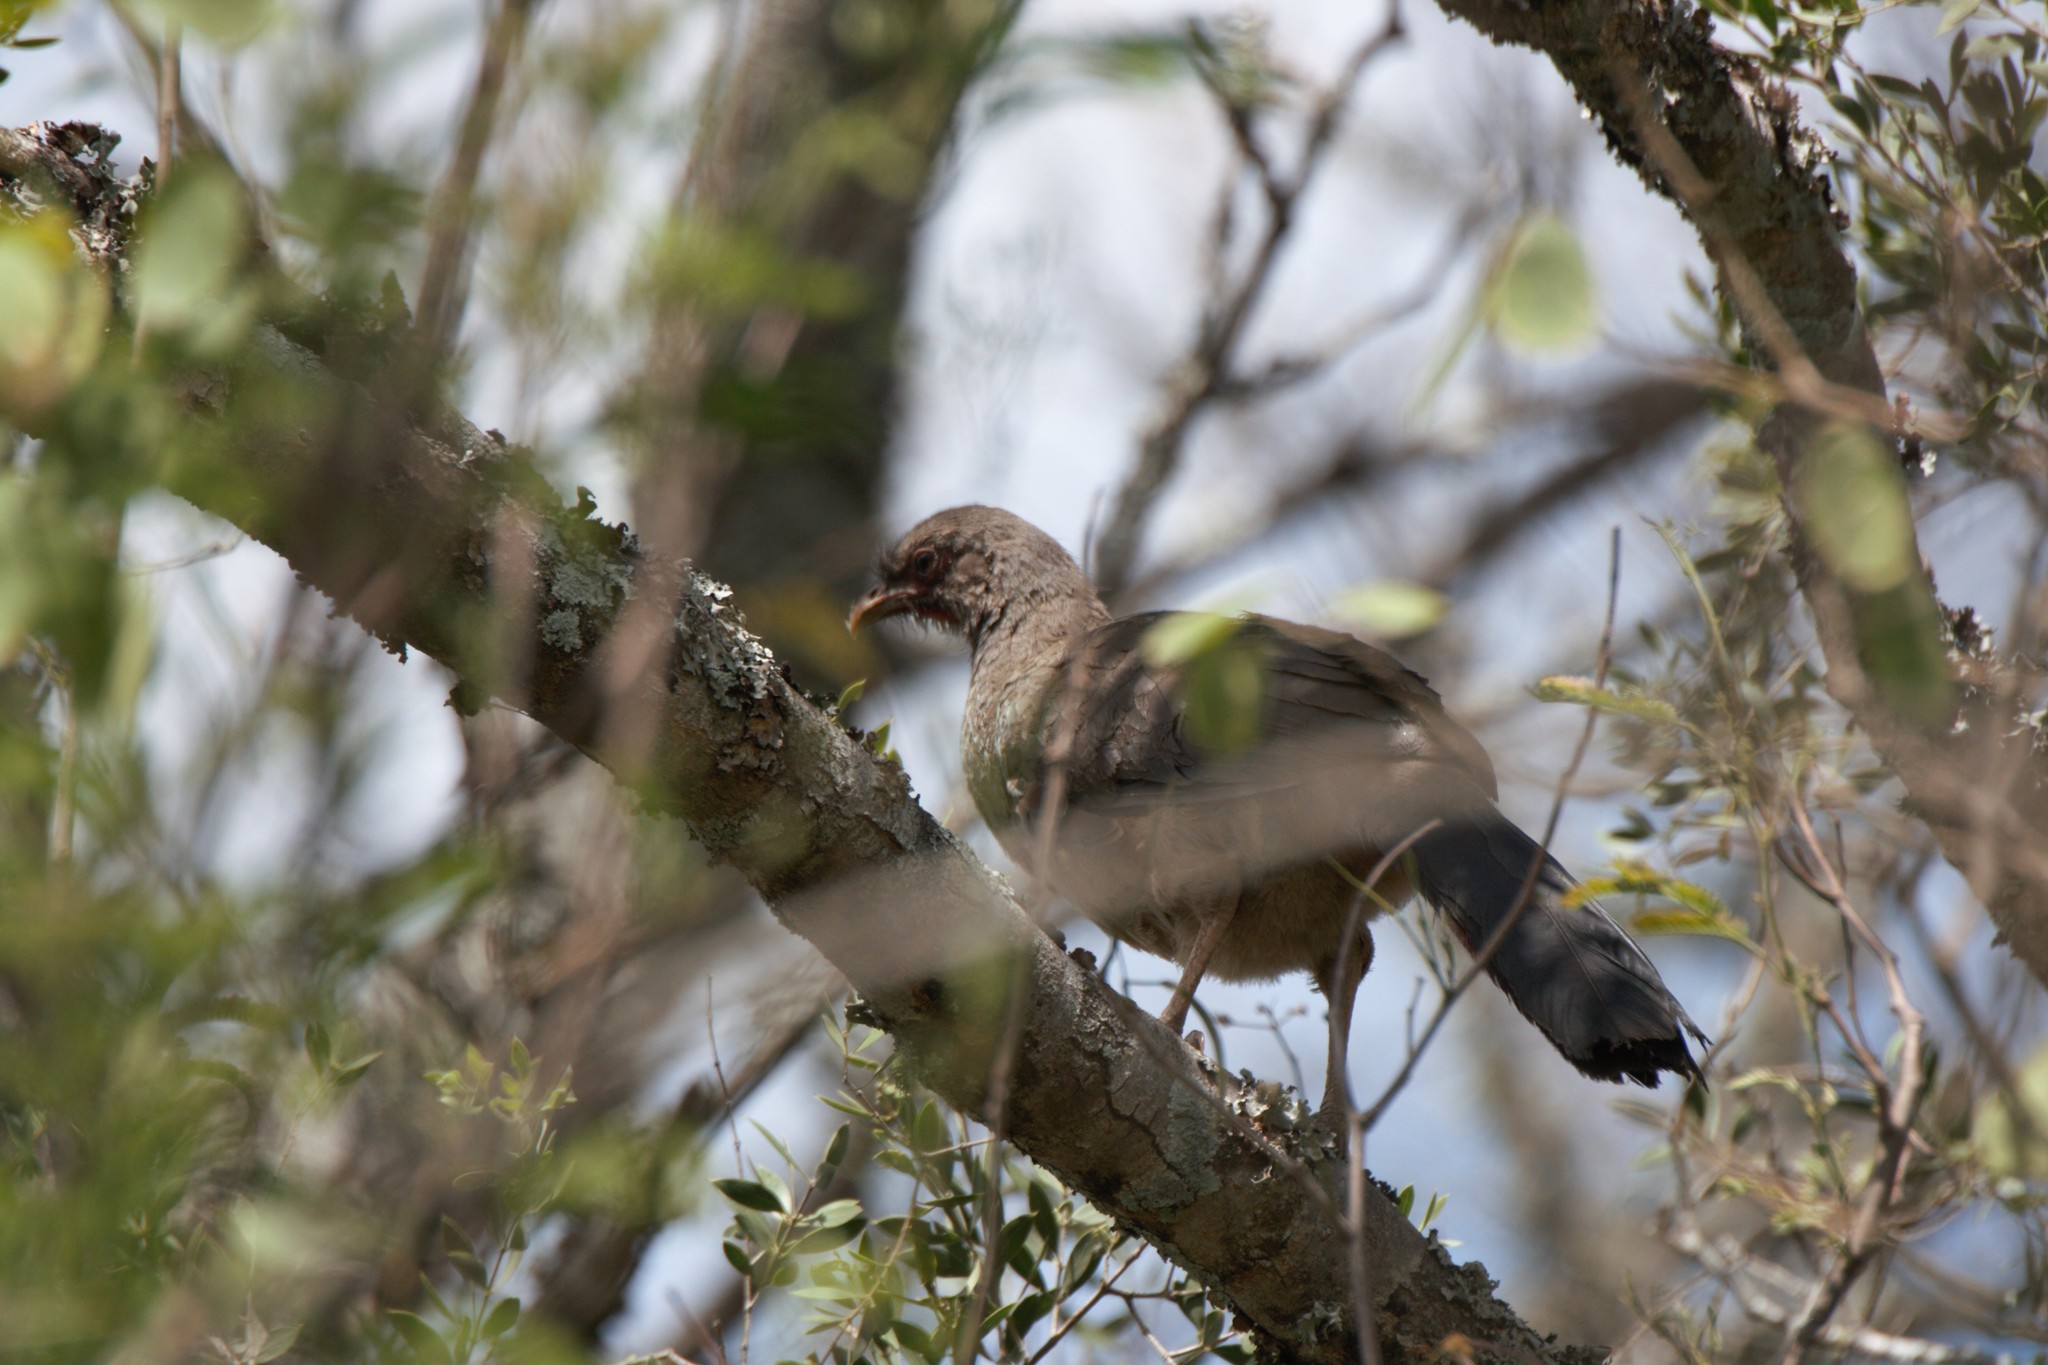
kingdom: Animalia
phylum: Chordata
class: Aves
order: Galliformes
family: Cracidae
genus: Ortalis
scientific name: Ortalis canicollis
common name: Chaco chachalaca
